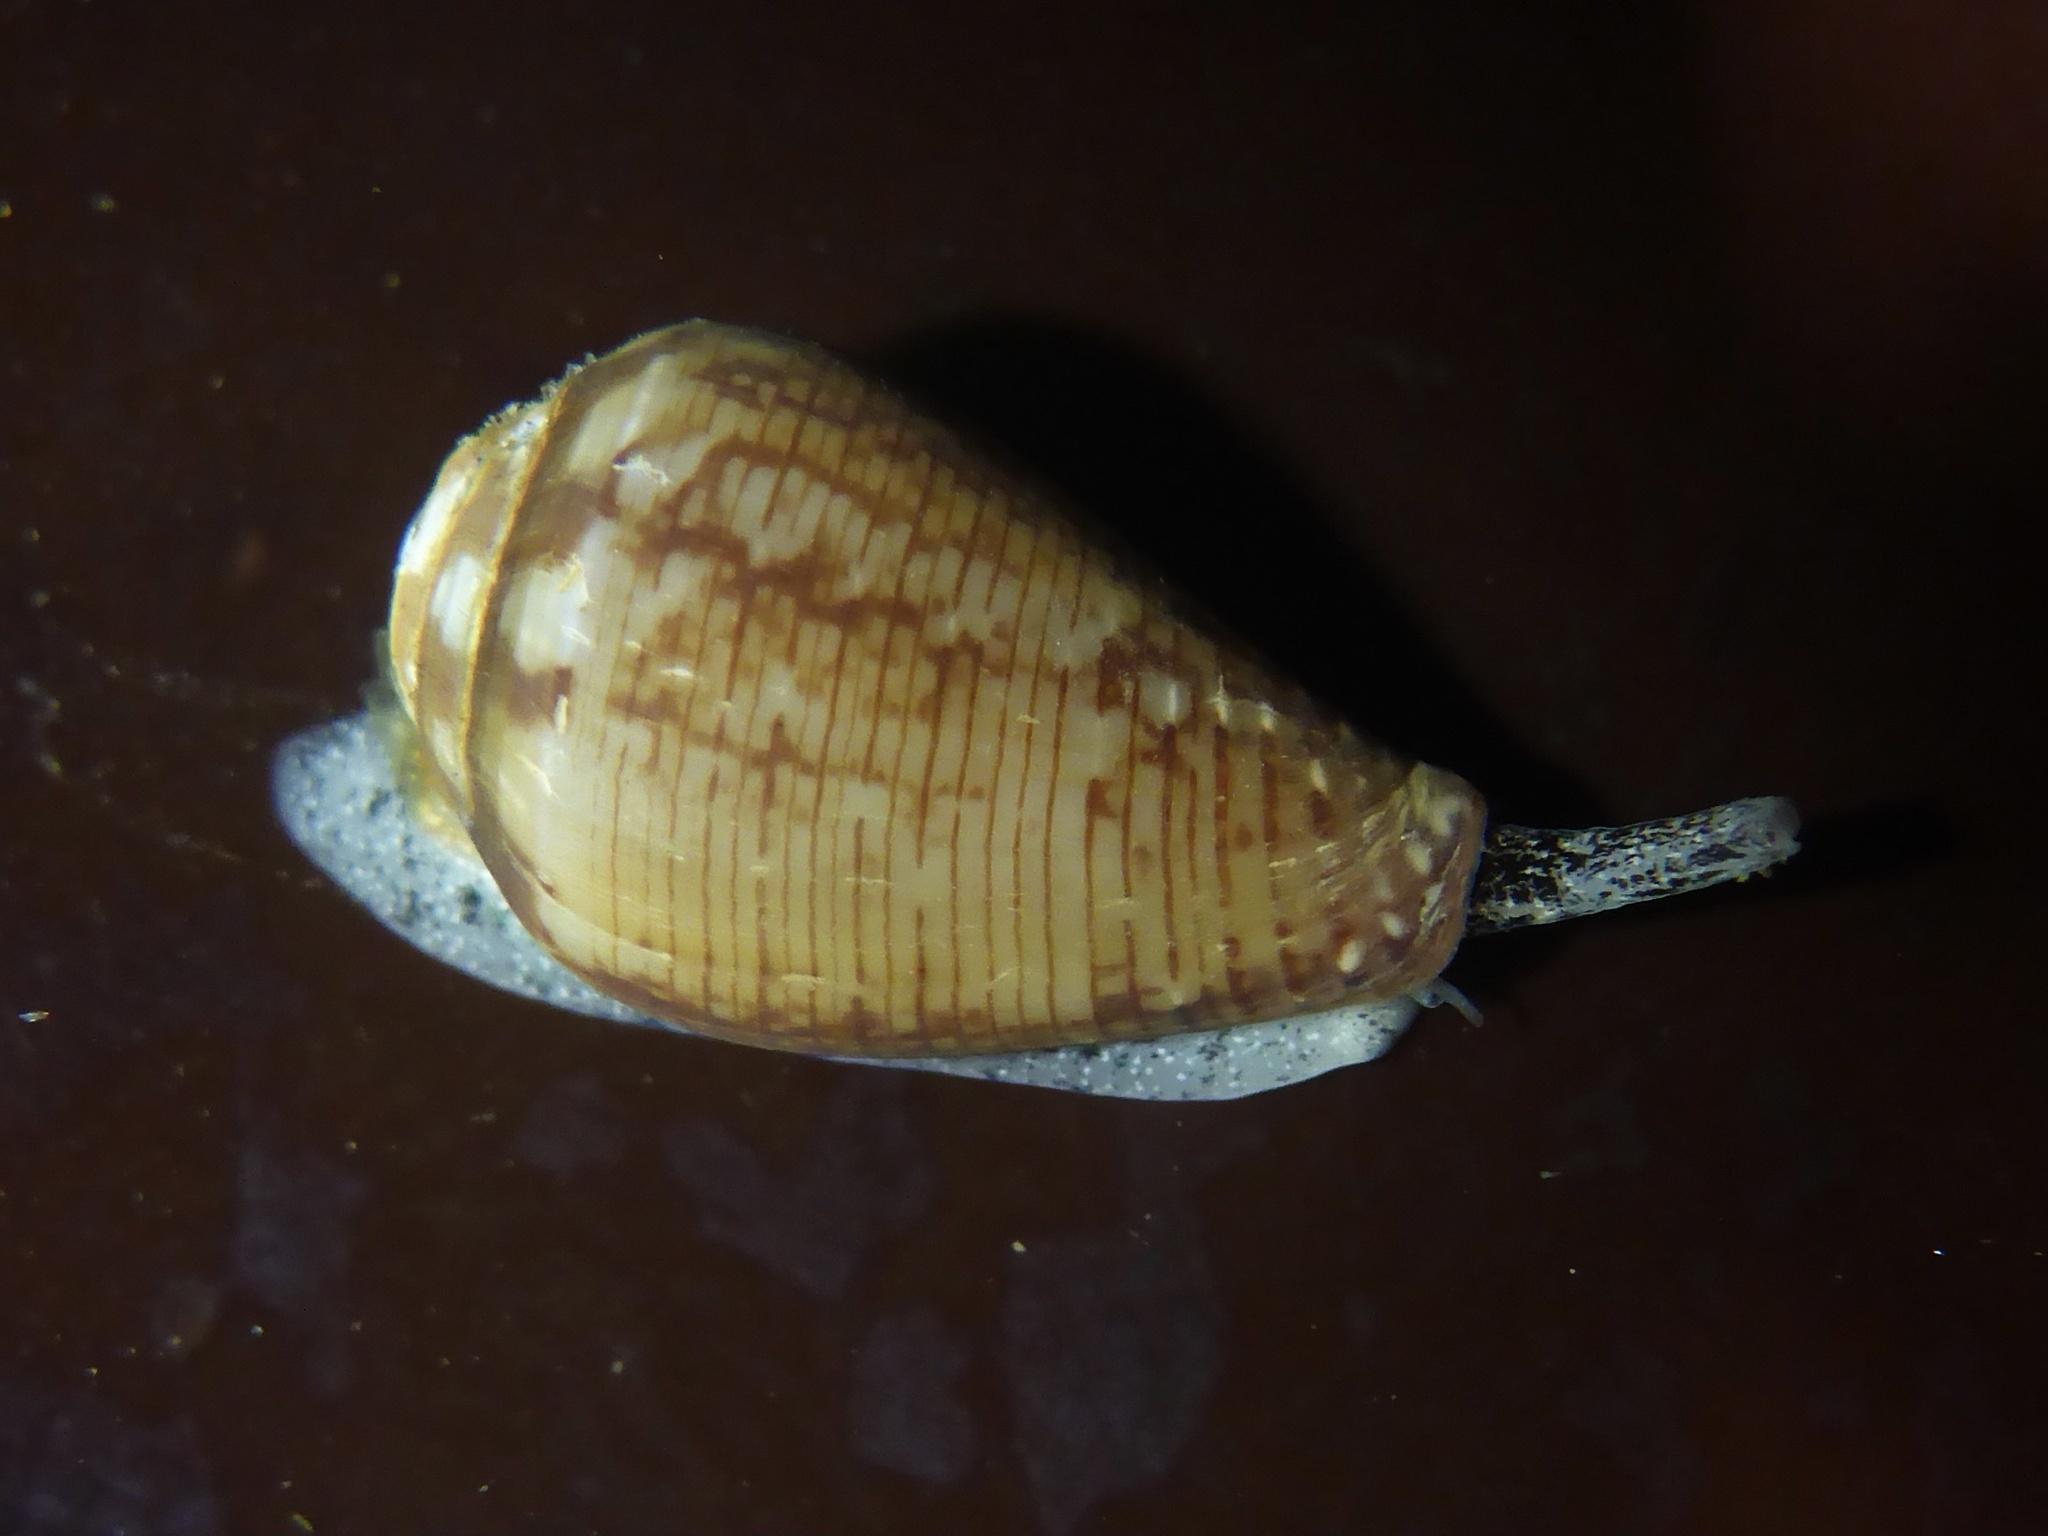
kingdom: Animalia
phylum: Mollusca
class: Gastropoda
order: Neogastropoda
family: Conidae
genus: Californiconus
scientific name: Californiconus californicus
